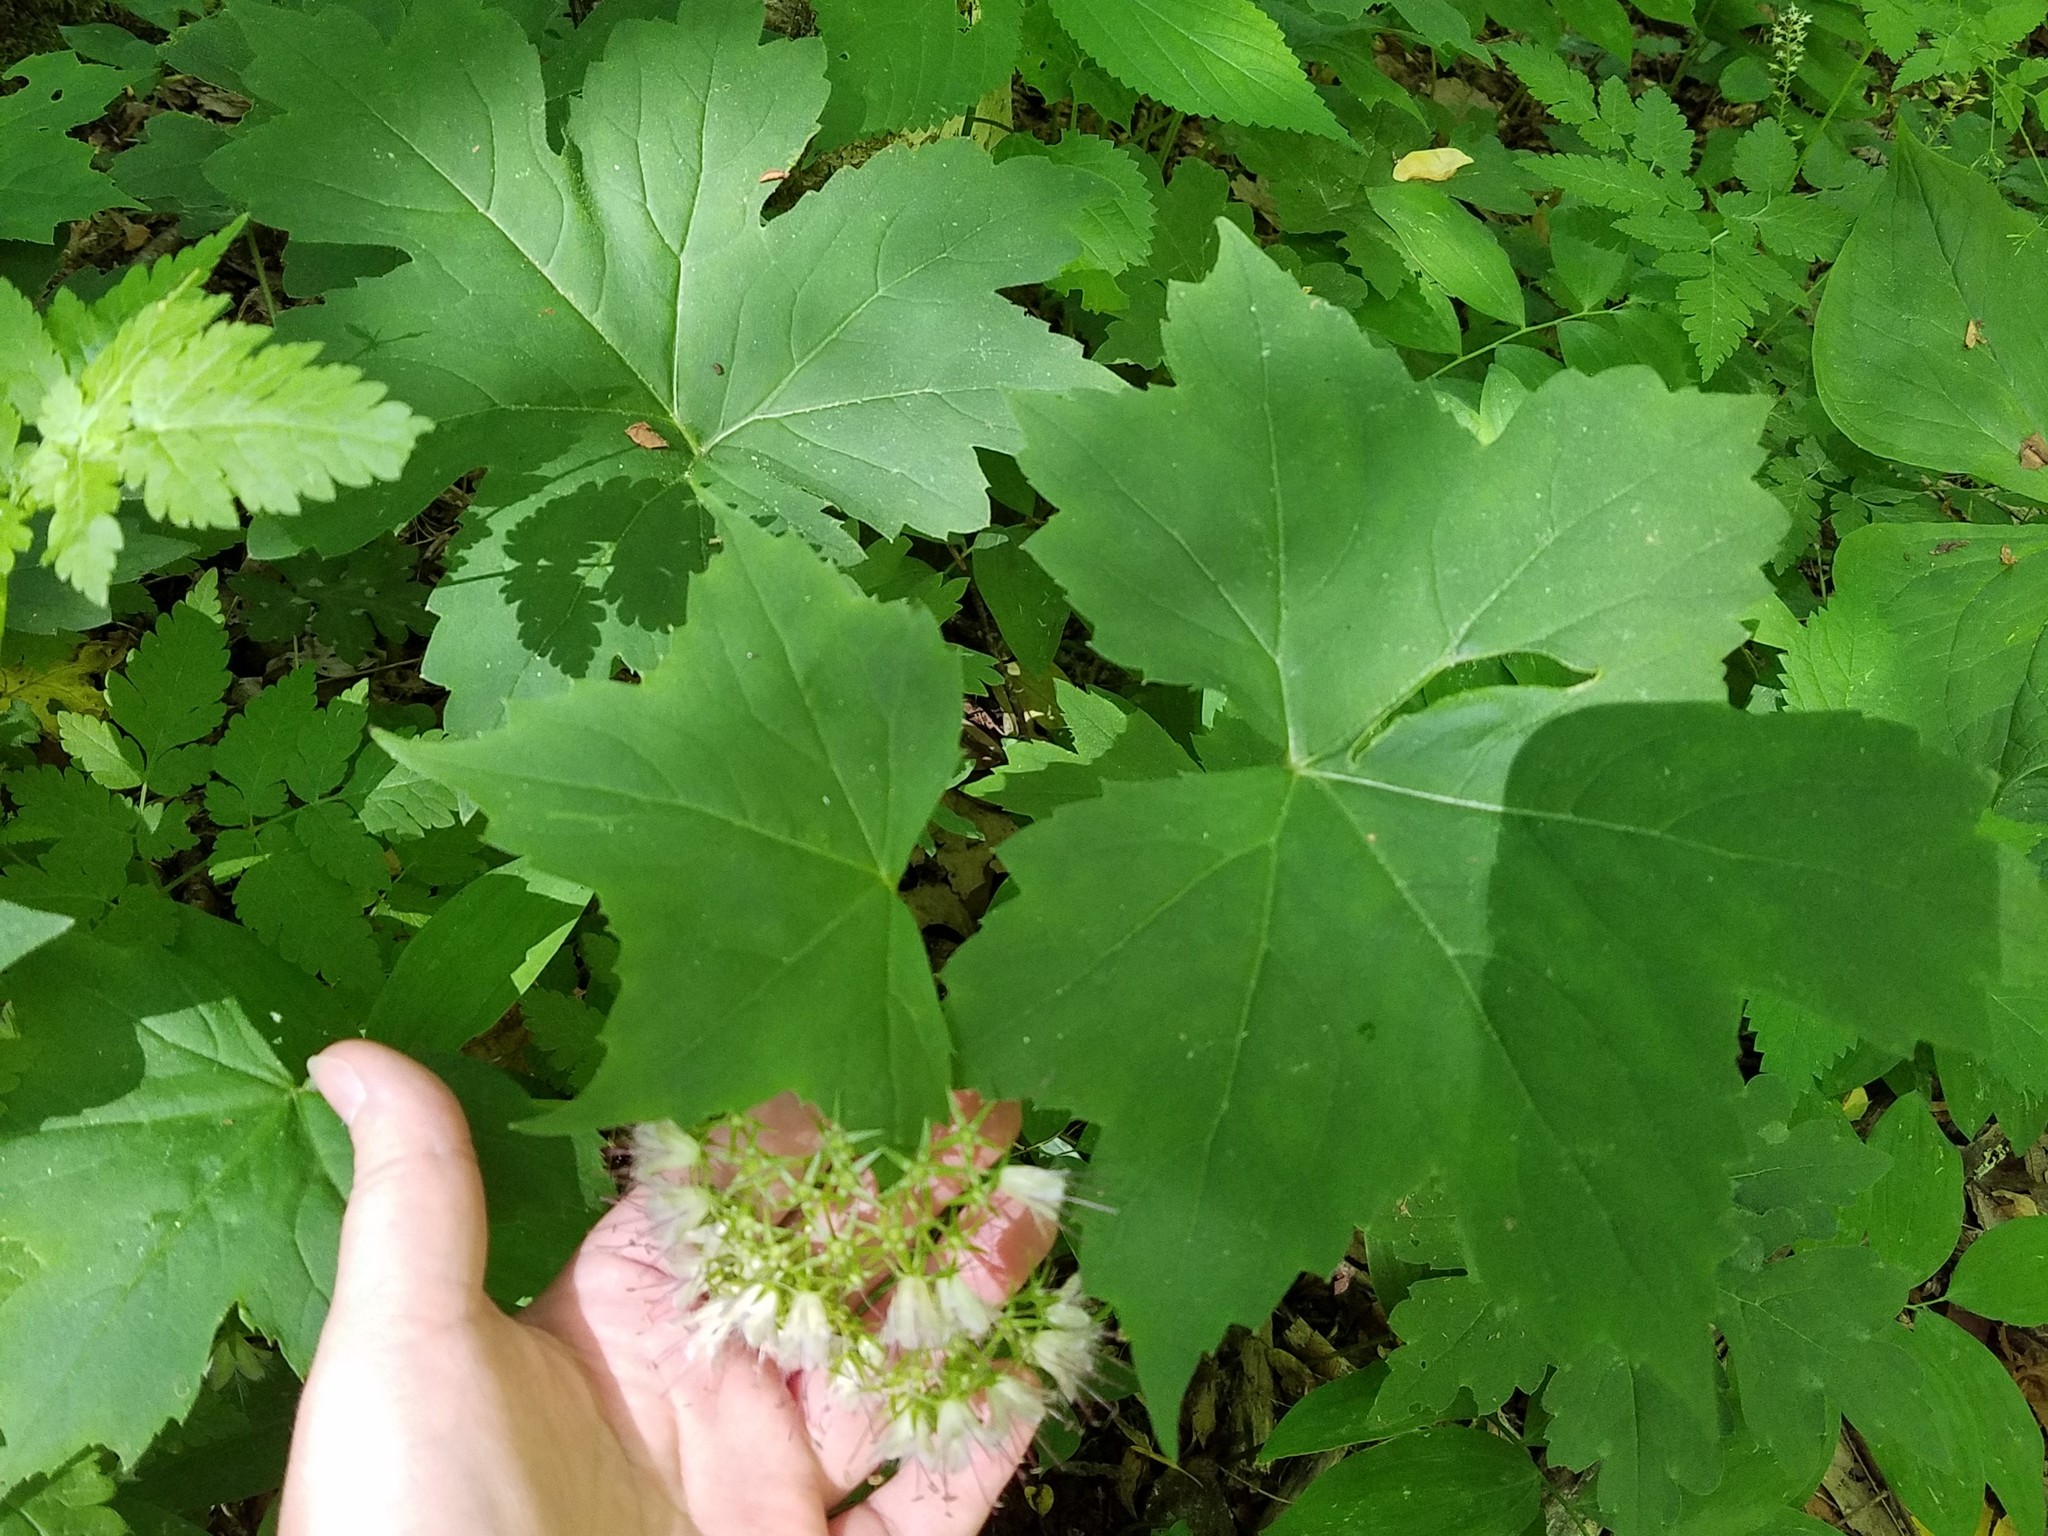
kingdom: Plantae
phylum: Tracheophyta
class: Magnoliopsida
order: Boraginales
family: Hydrophyllaceae
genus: Hydrophyllum
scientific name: Hydrophyllum canadense
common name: Canada waterleaf
